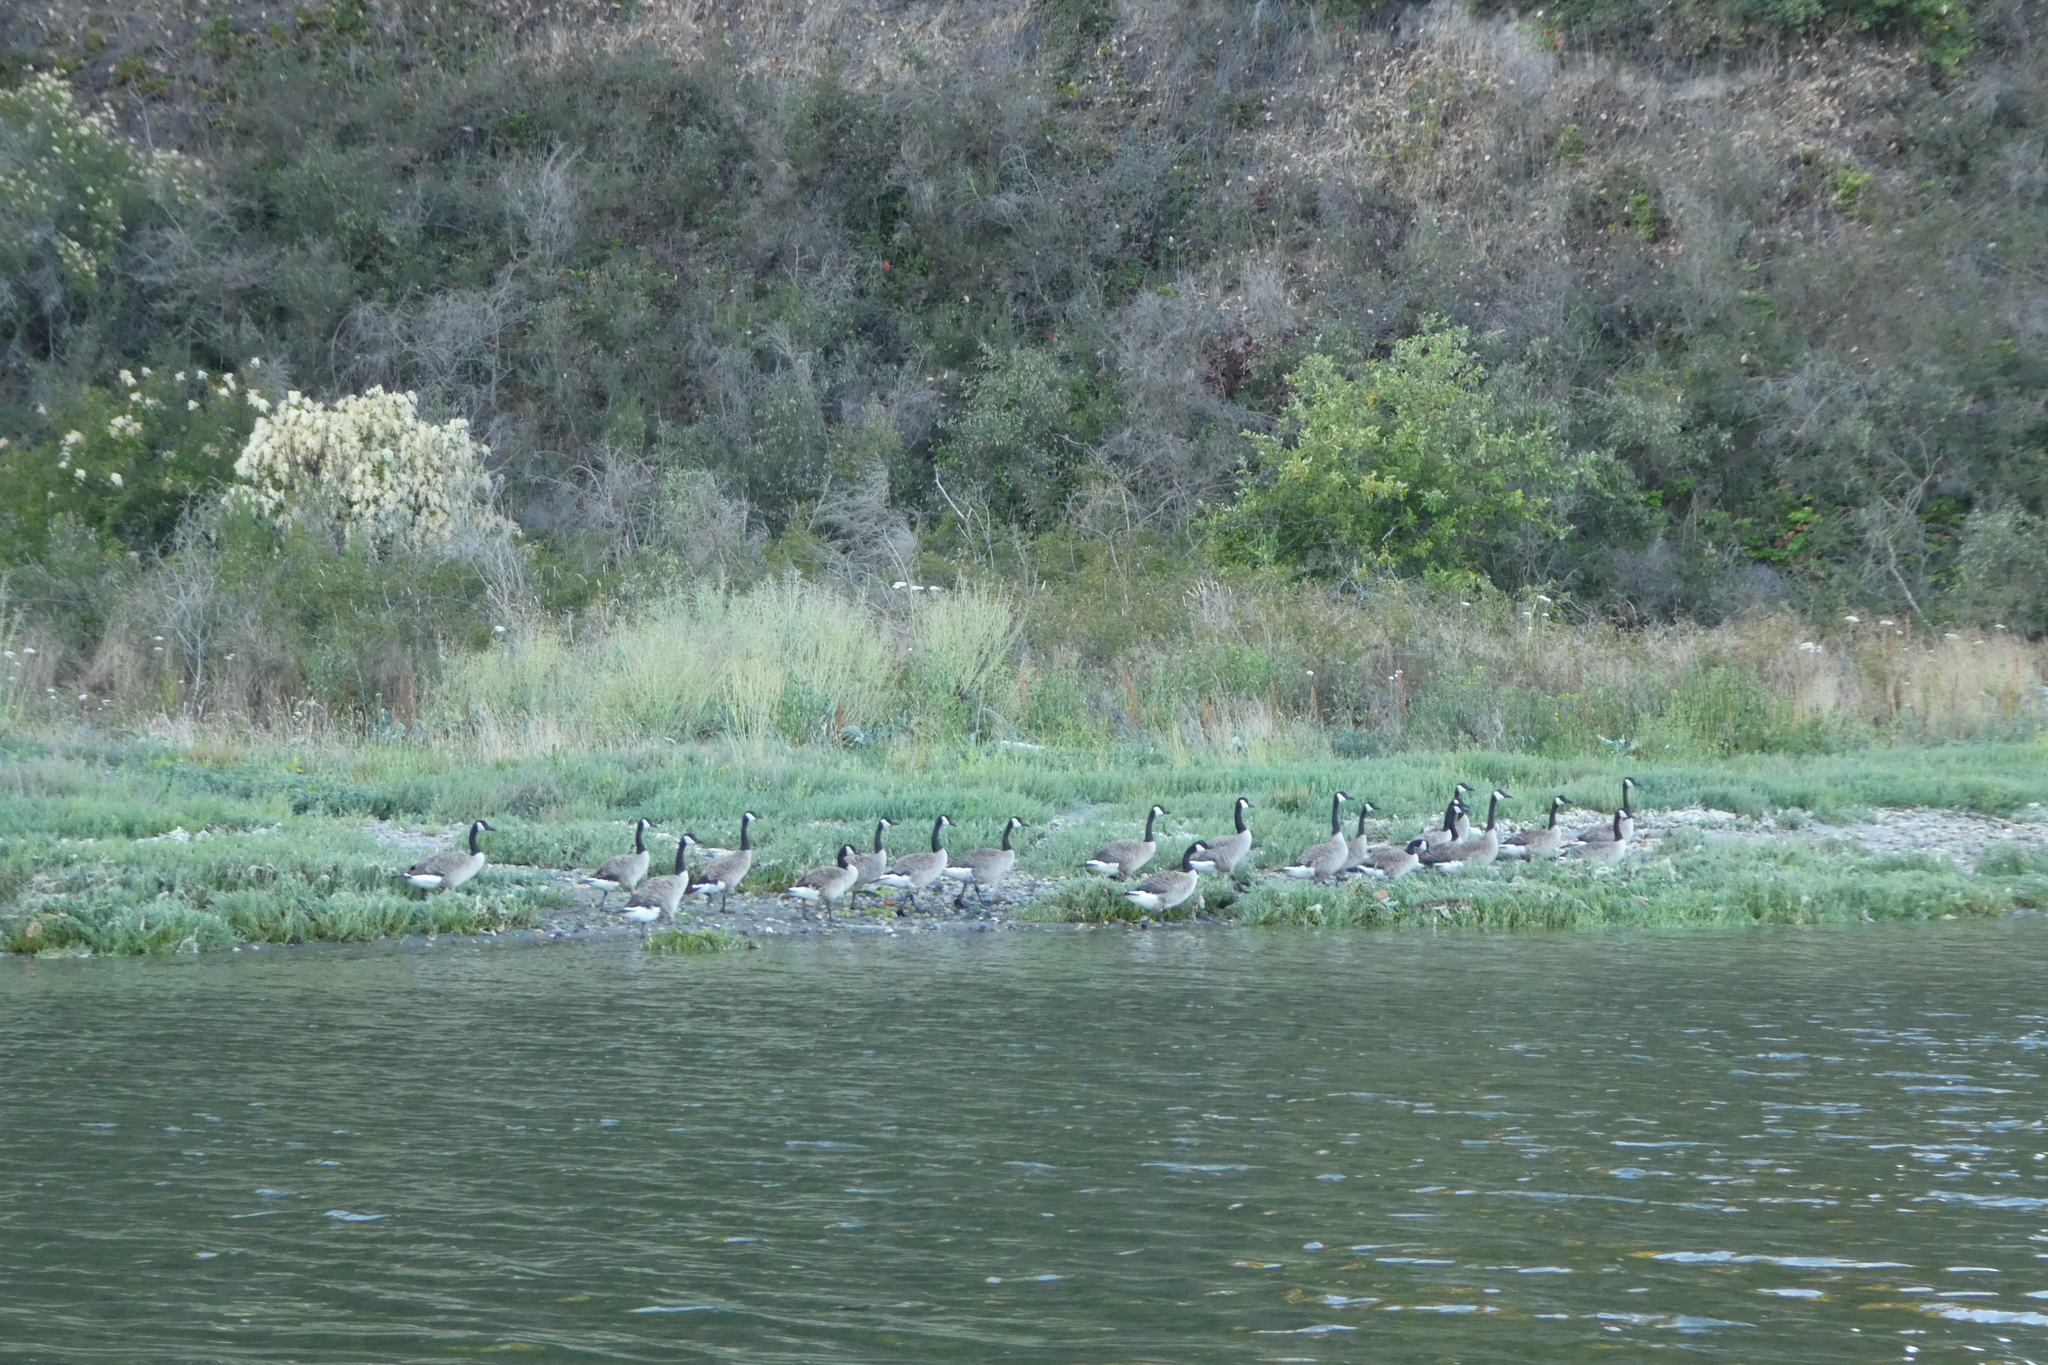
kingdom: Animalia
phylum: Chordata
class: Aves
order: Anseriformes
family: Anatidae
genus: Branta
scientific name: Branta canadensis
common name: Canada goose
